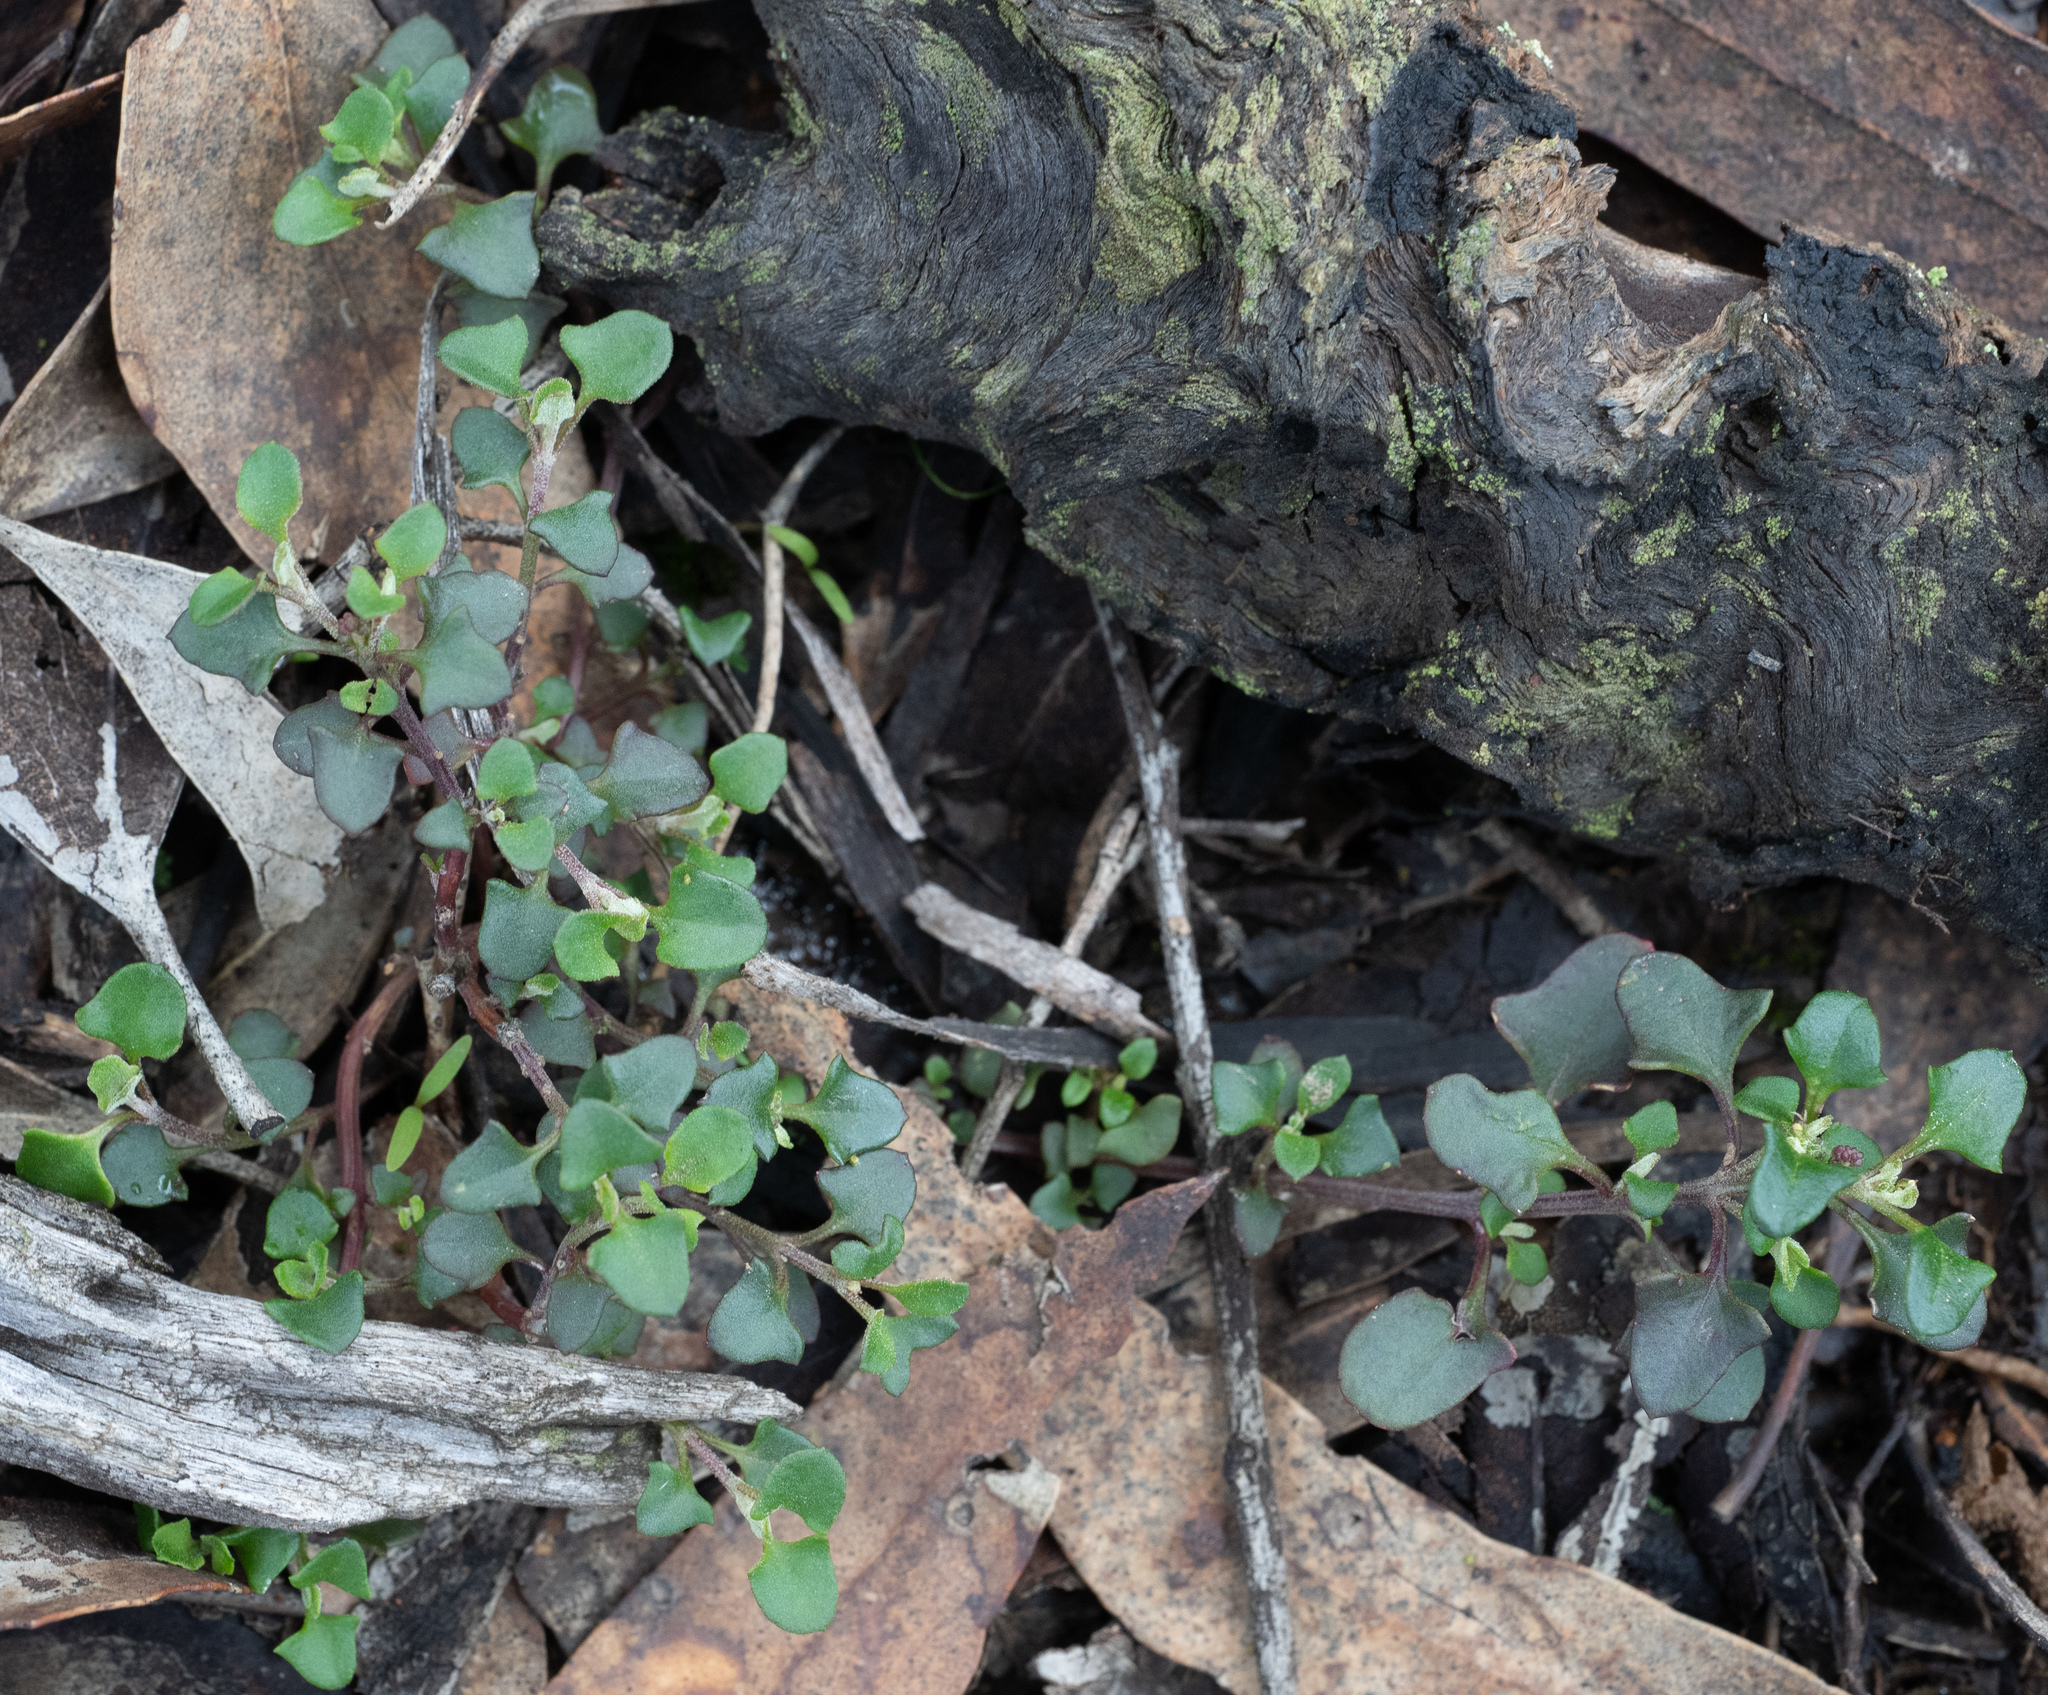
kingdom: Plantae
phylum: Tracheophyta
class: Magnoliopsida
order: Caryophyllales
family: Amaranthaceae
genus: Chenopodium
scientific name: Chenopodium robertianum
